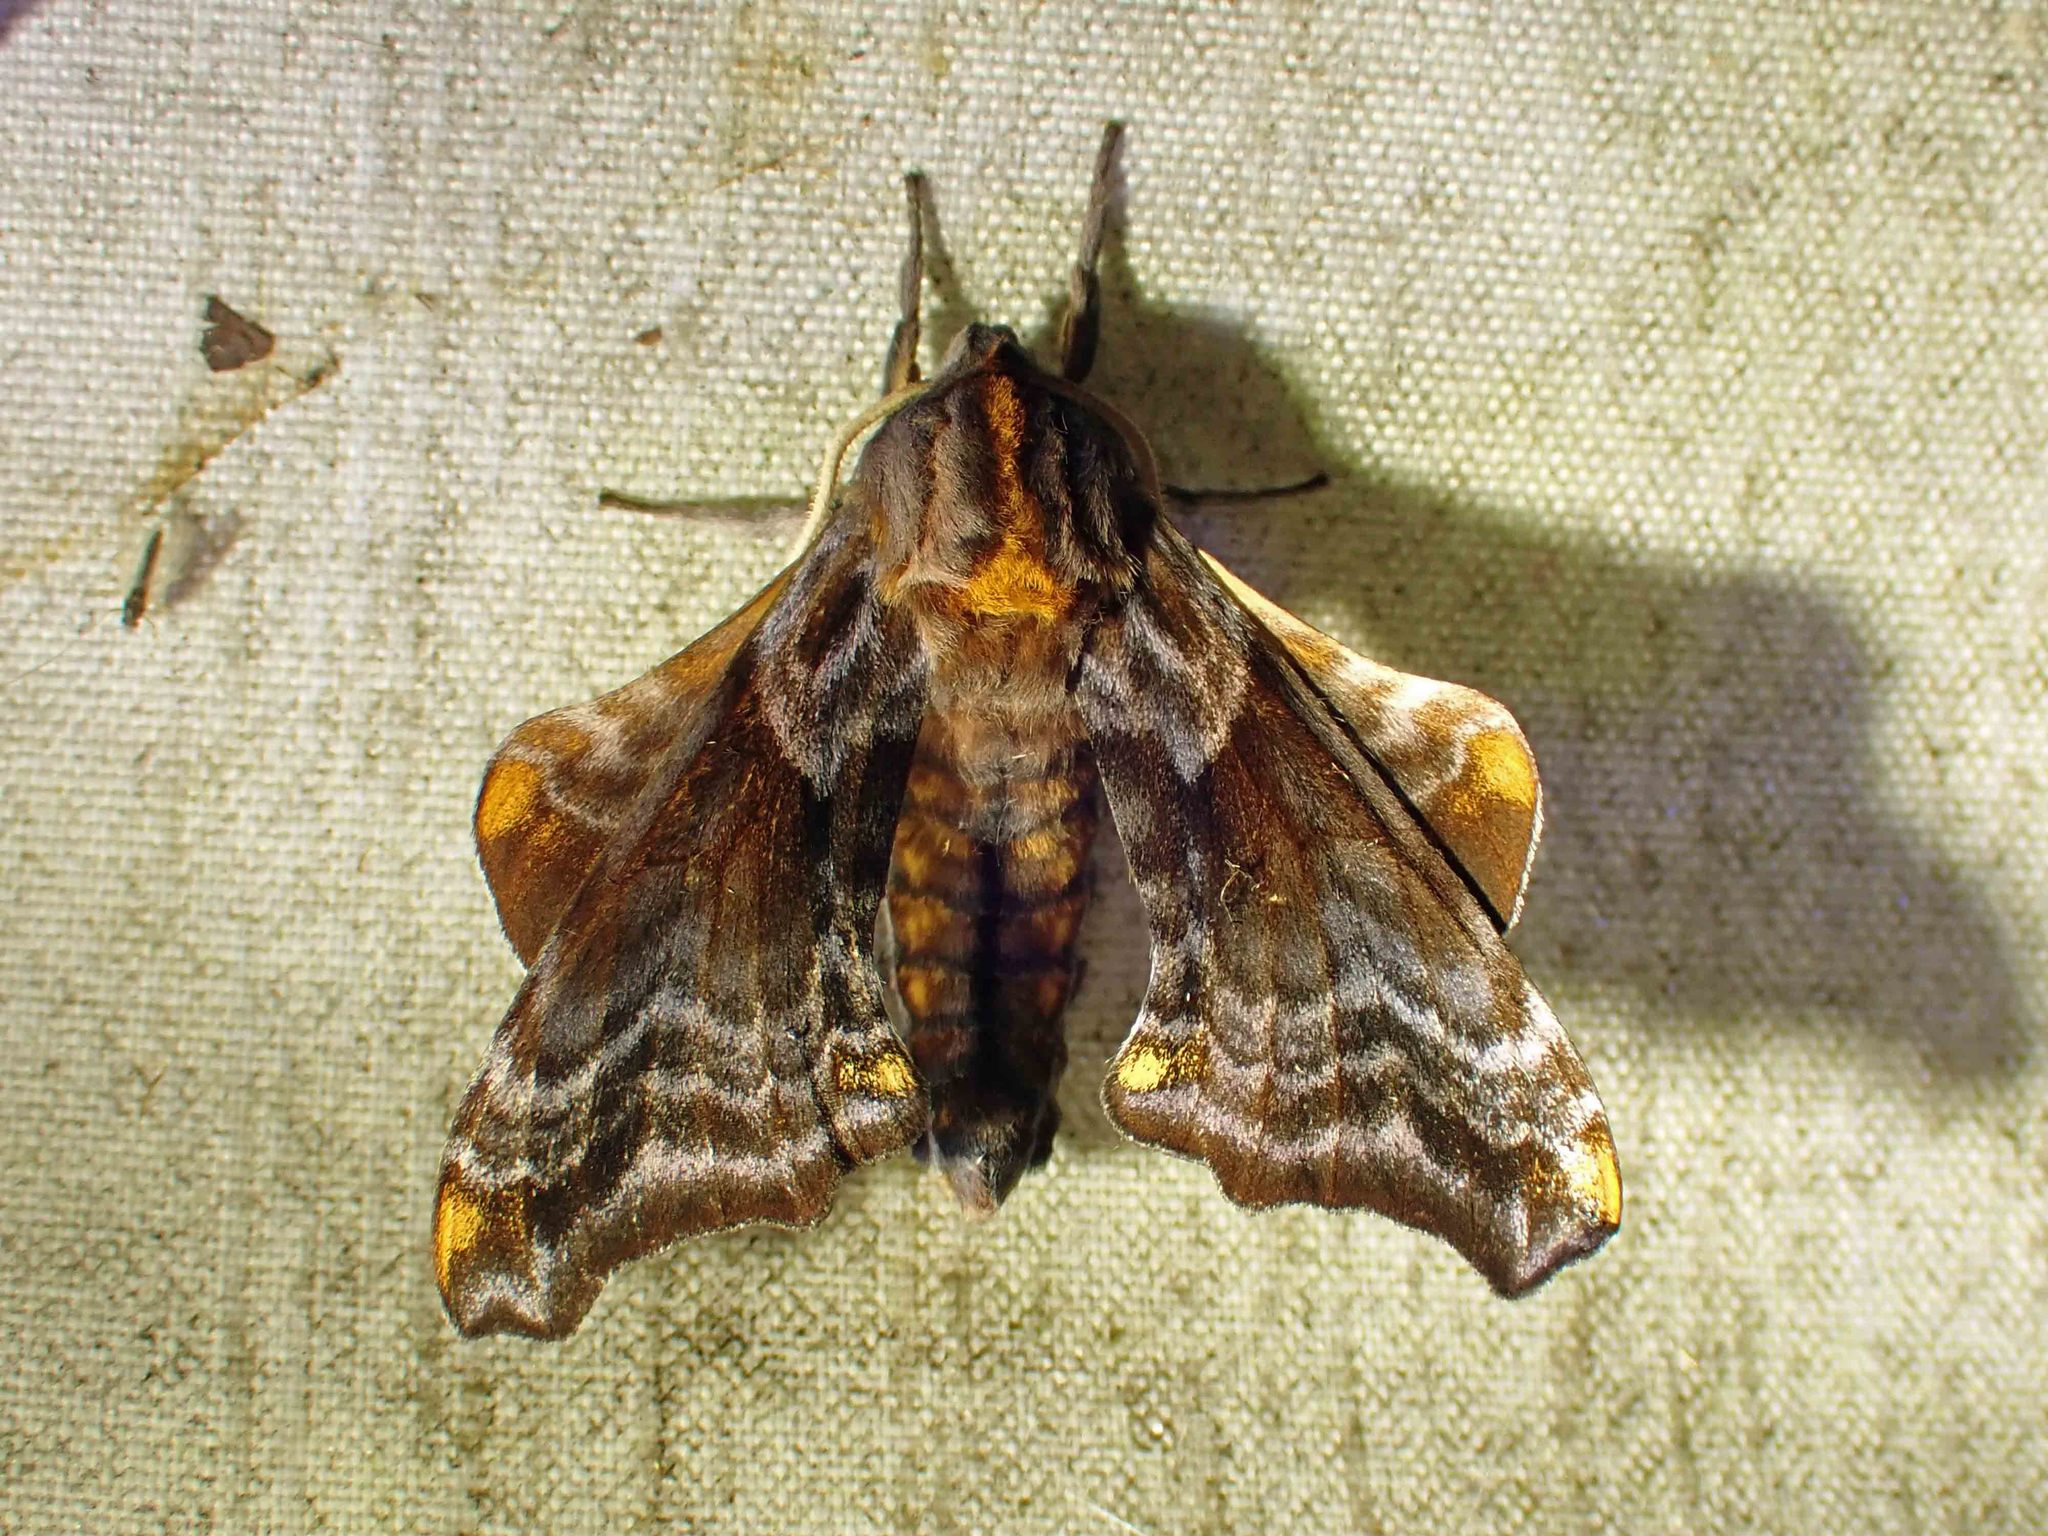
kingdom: Animalia
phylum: Arthropoda
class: Insecta
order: Lepidoptera
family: Sphingidae
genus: Paonias
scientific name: Paonias myops
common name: Small-eyed sphinx
